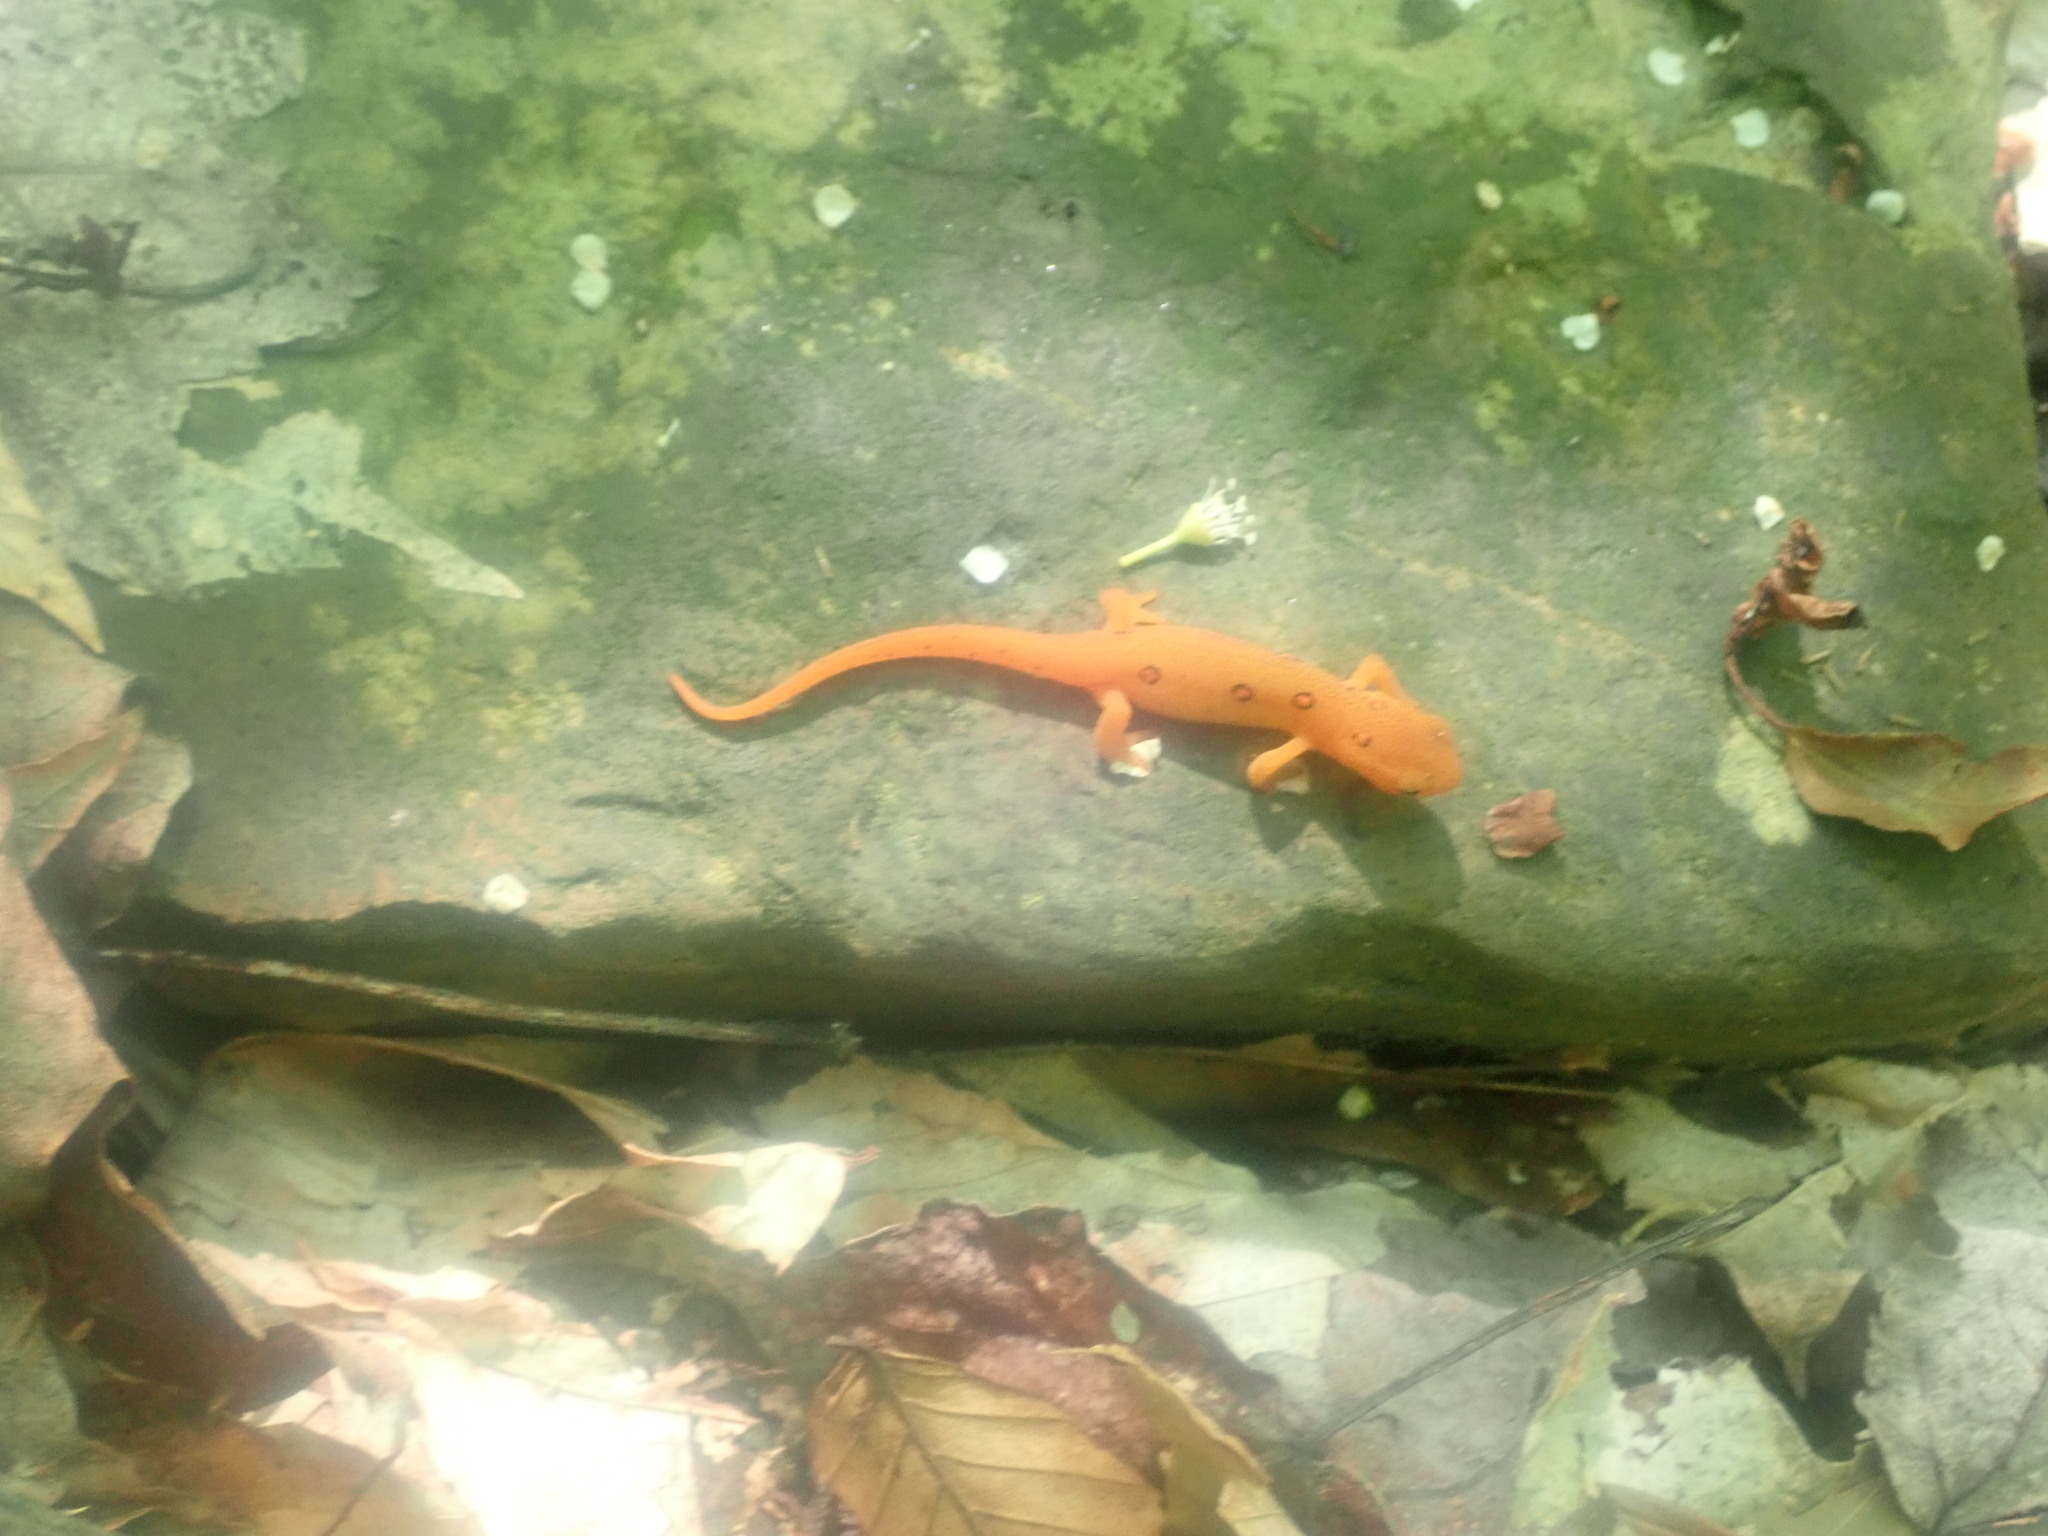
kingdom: Animalia
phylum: Chordata
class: Amphibia
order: Caudata
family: Salamandridae
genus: Notophthalmus
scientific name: Notophthalmus viridescens
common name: Eastern newt
